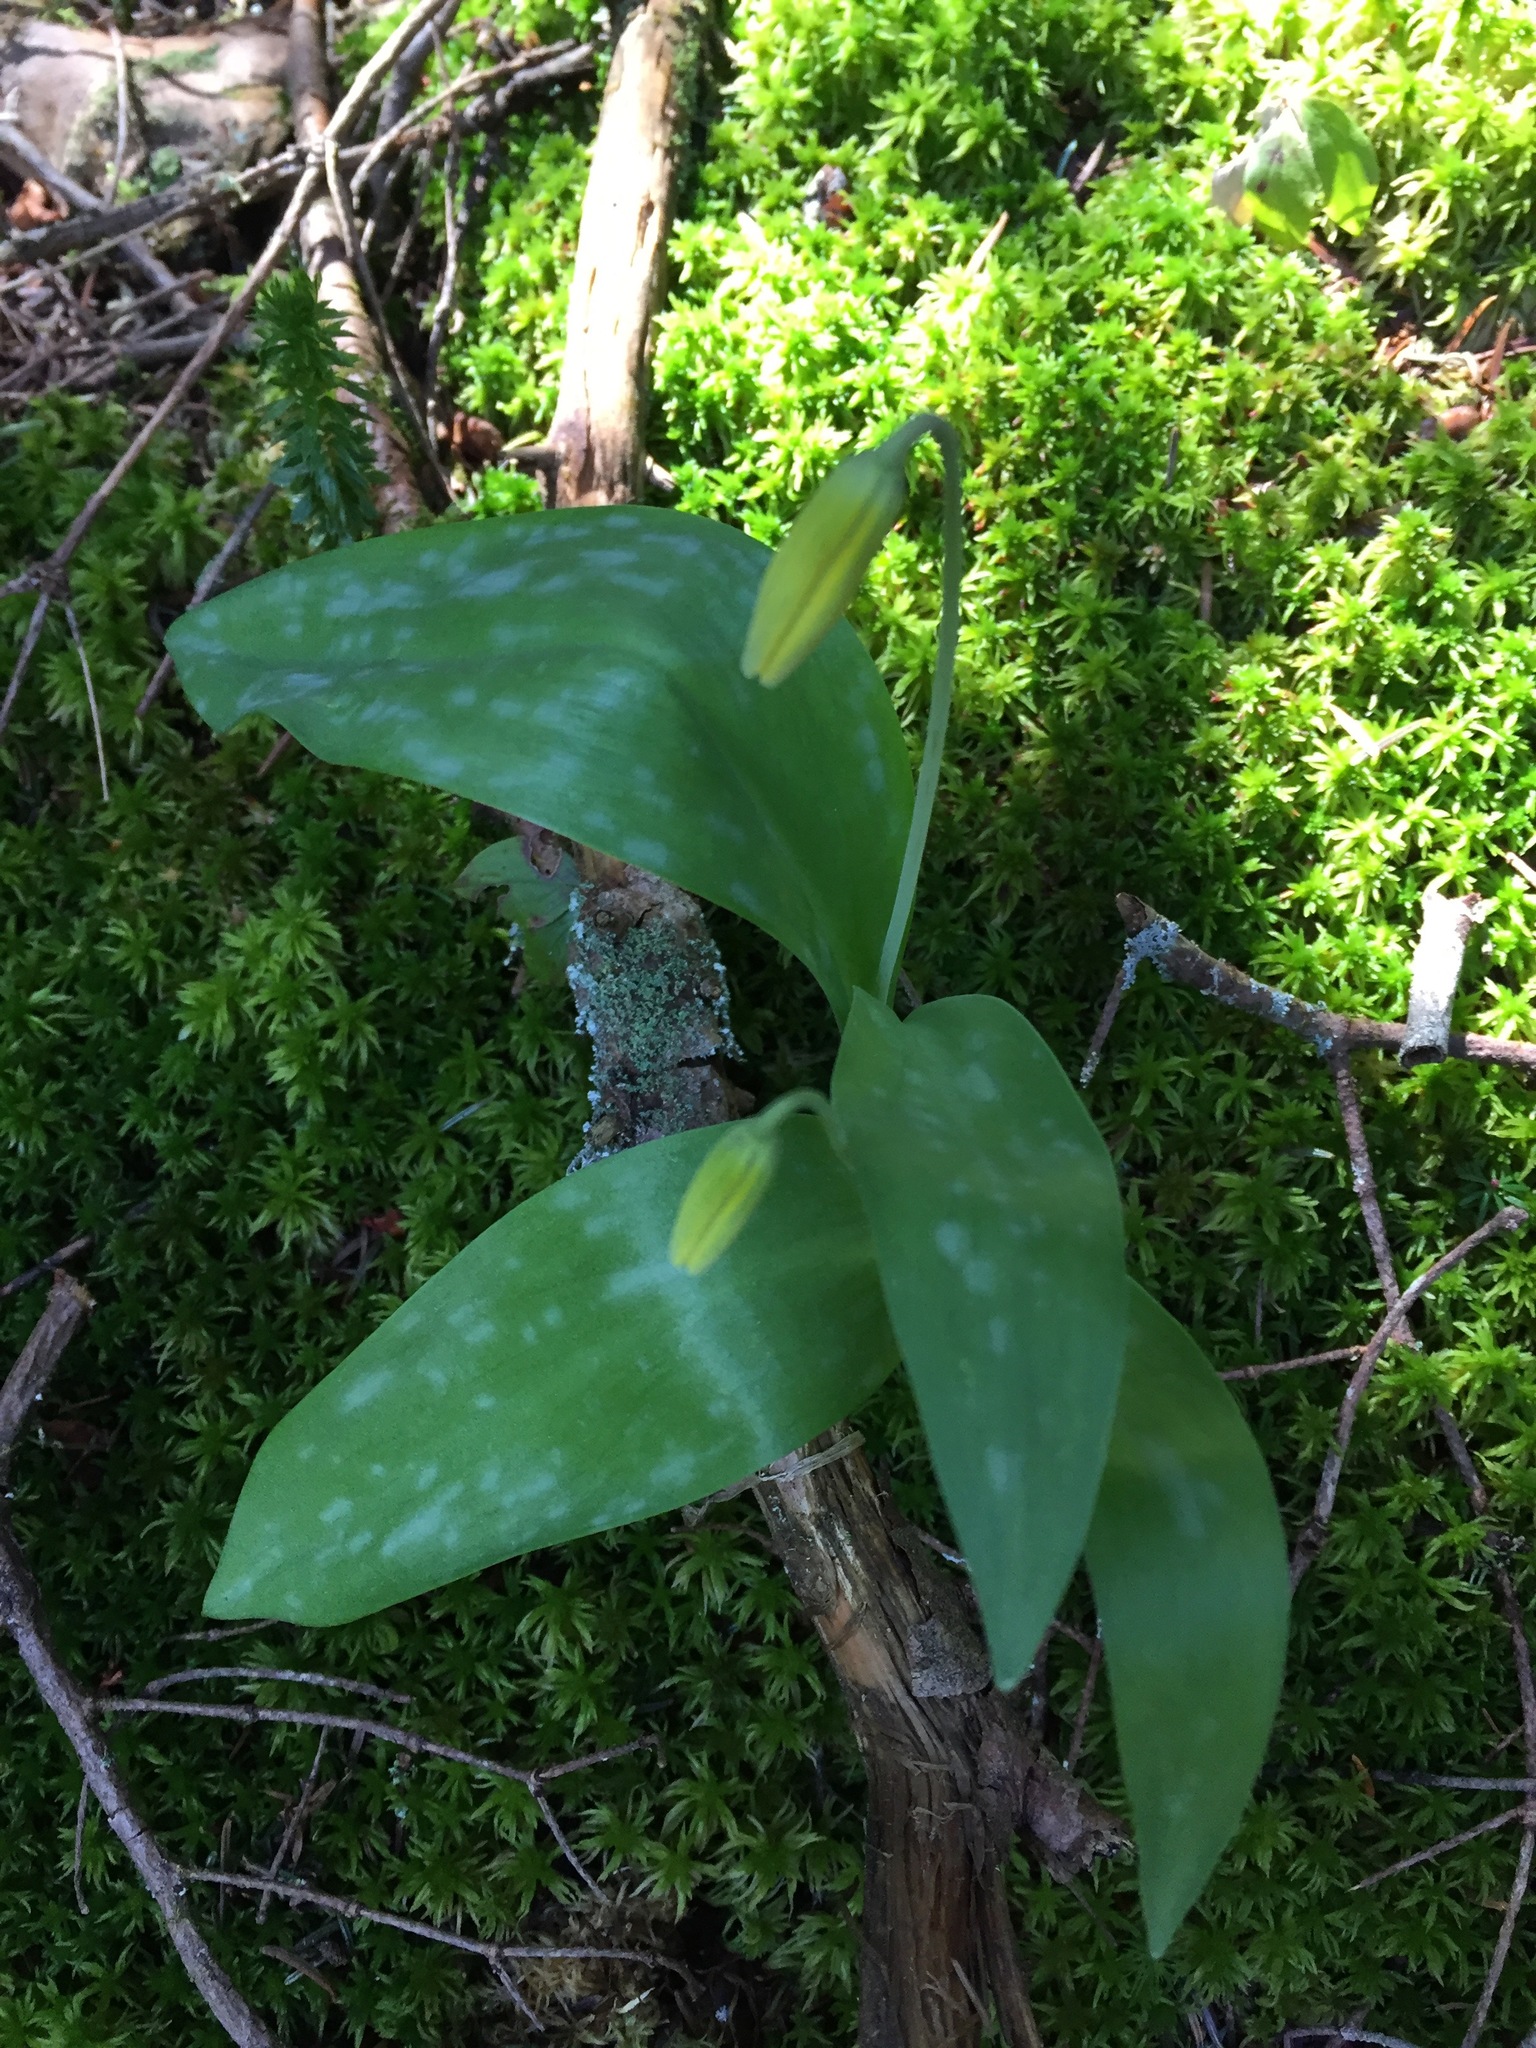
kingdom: Plantae
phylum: Tracheophyta
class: Liliopsida
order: Liliales
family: Liliaceae
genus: Erythronium
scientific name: Erythronium americanum
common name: Yellow adder's-tongue
